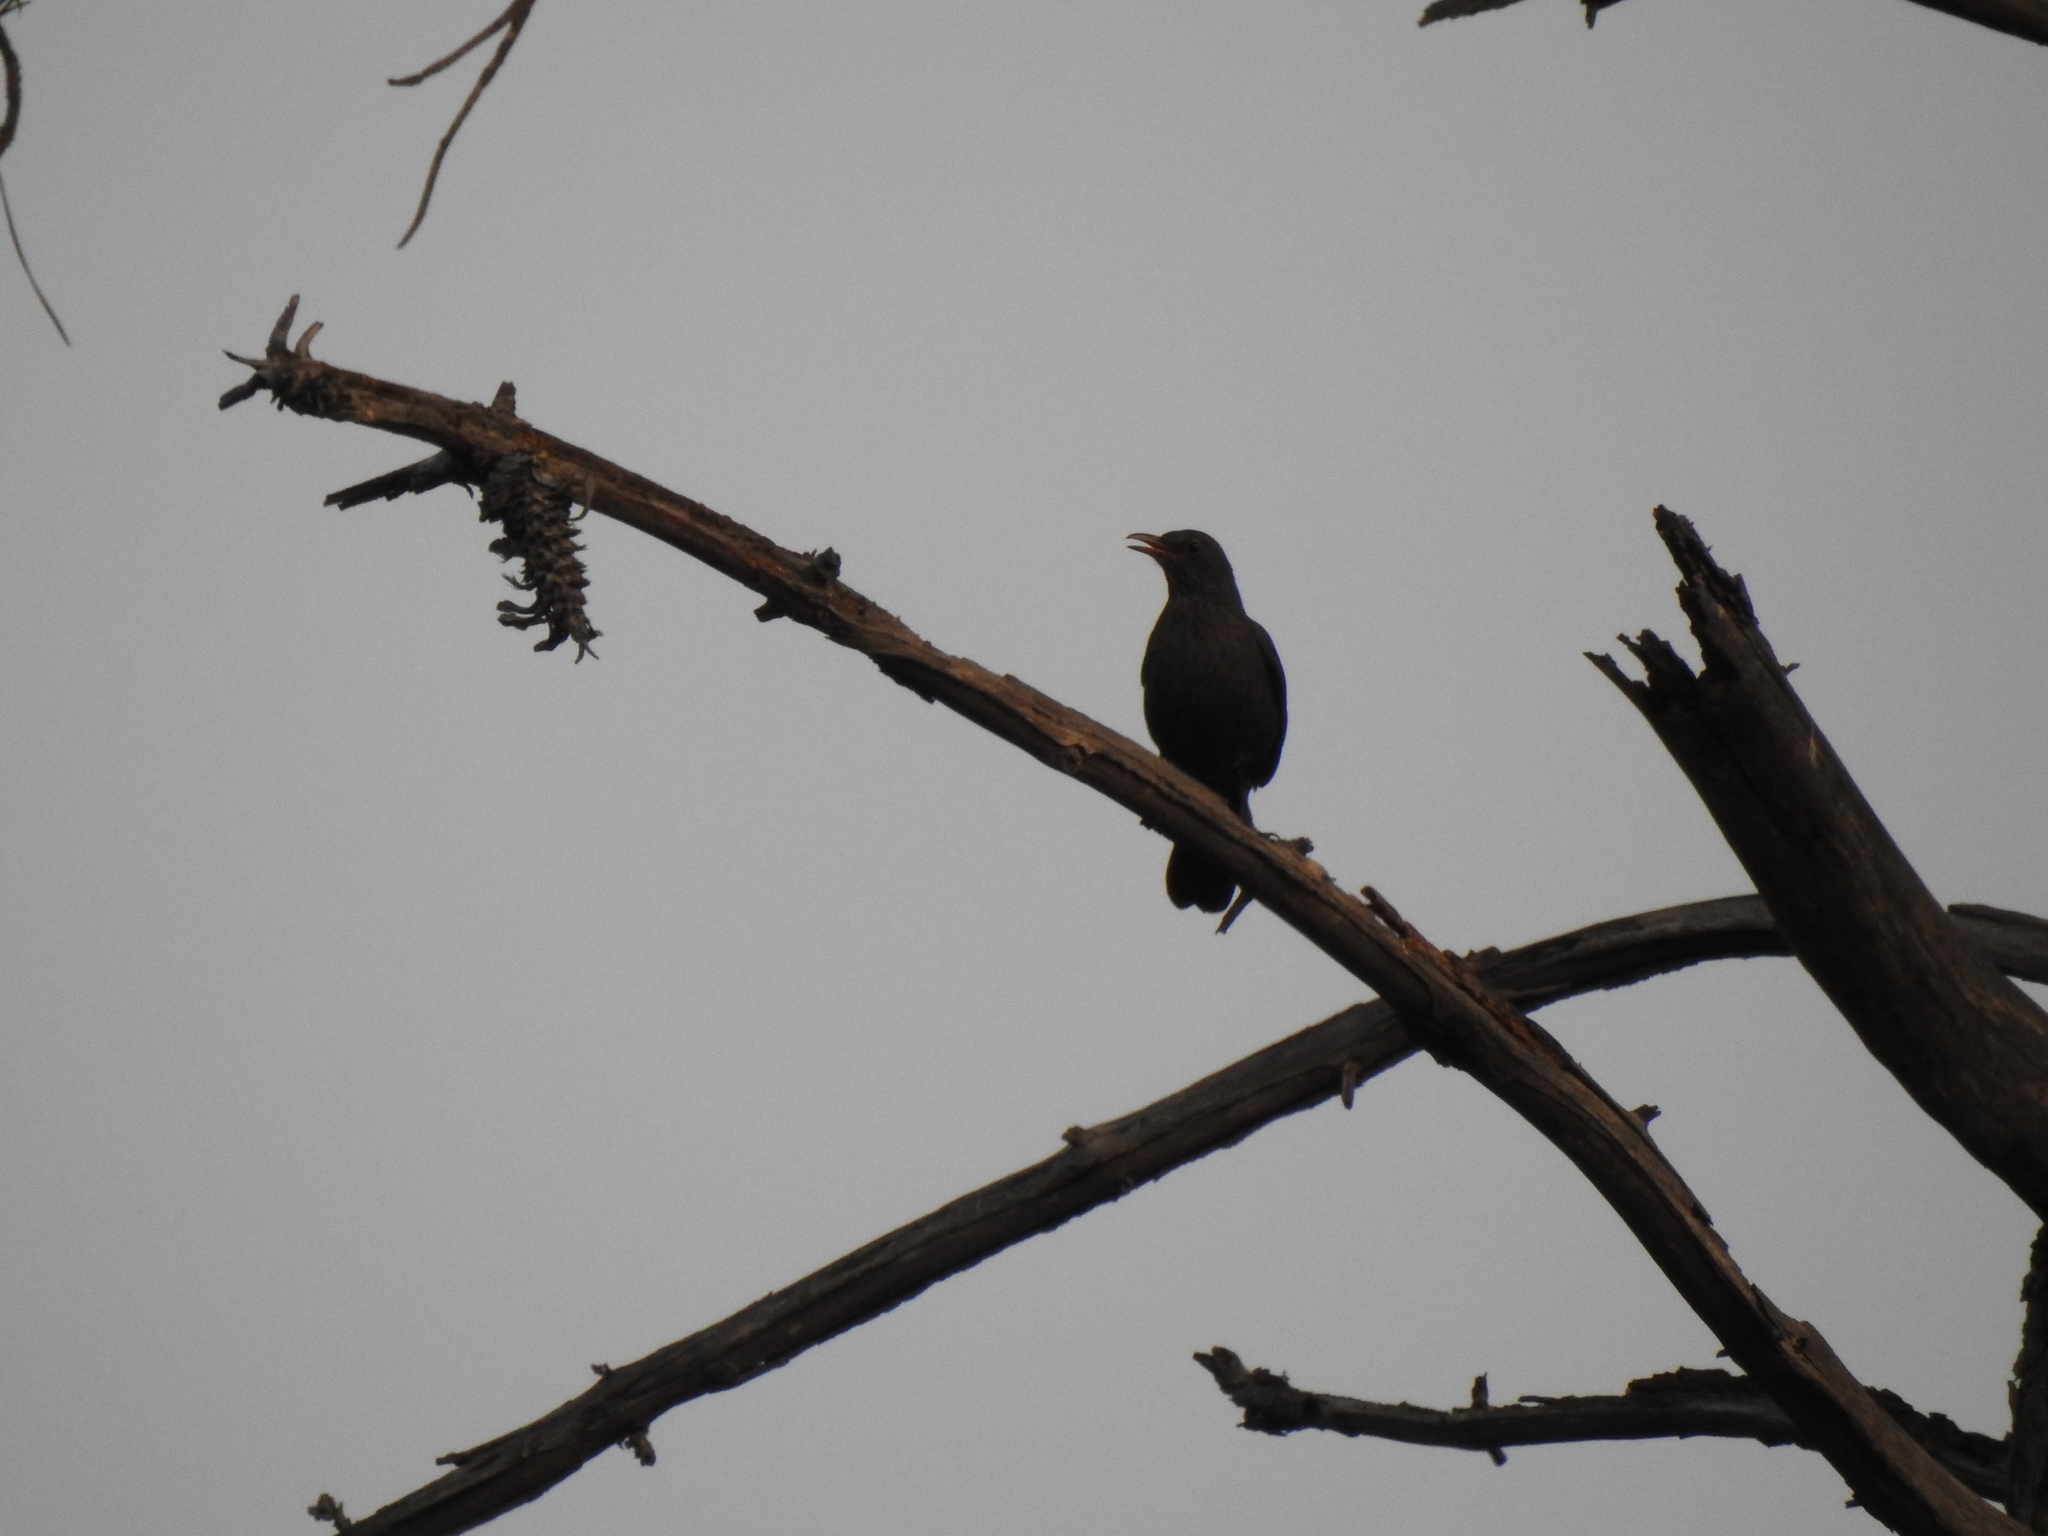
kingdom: Animalia
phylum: Chordata
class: Aves
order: Passeriformes
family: Turdidae
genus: Turdus
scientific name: Turdus merula
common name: Common blackbird
